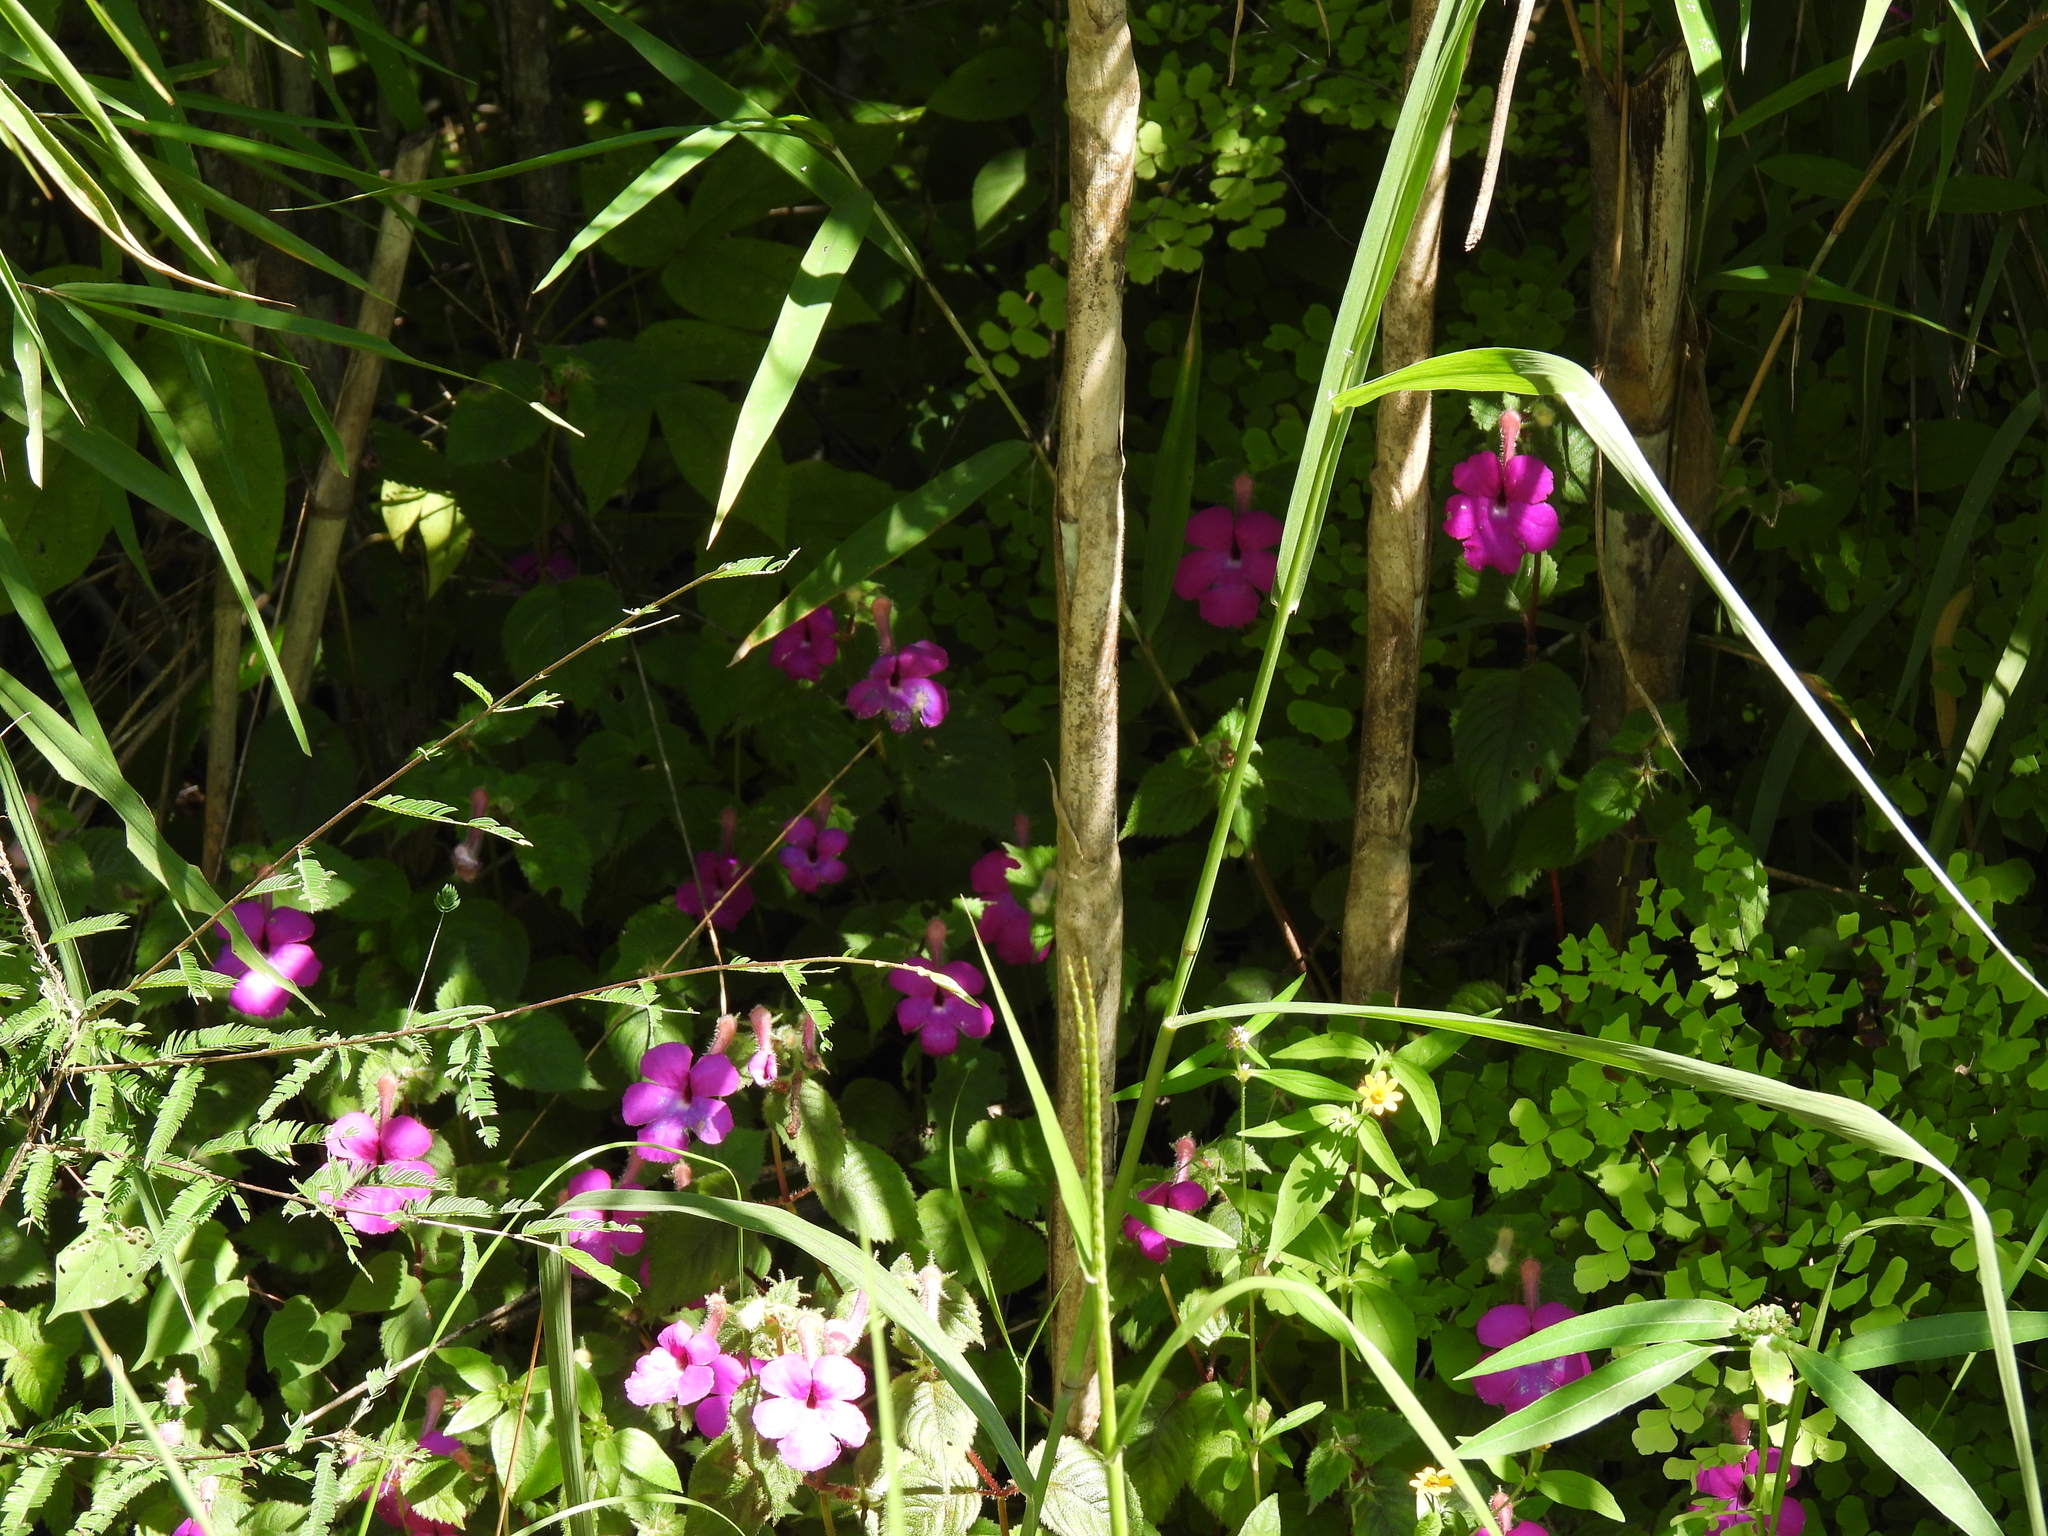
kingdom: Plantae
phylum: Tracheophyta
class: Magnoliopsida
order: Lamiales
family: Gesneriaceae
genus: Achimenes
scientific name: Achimenes skinneri
